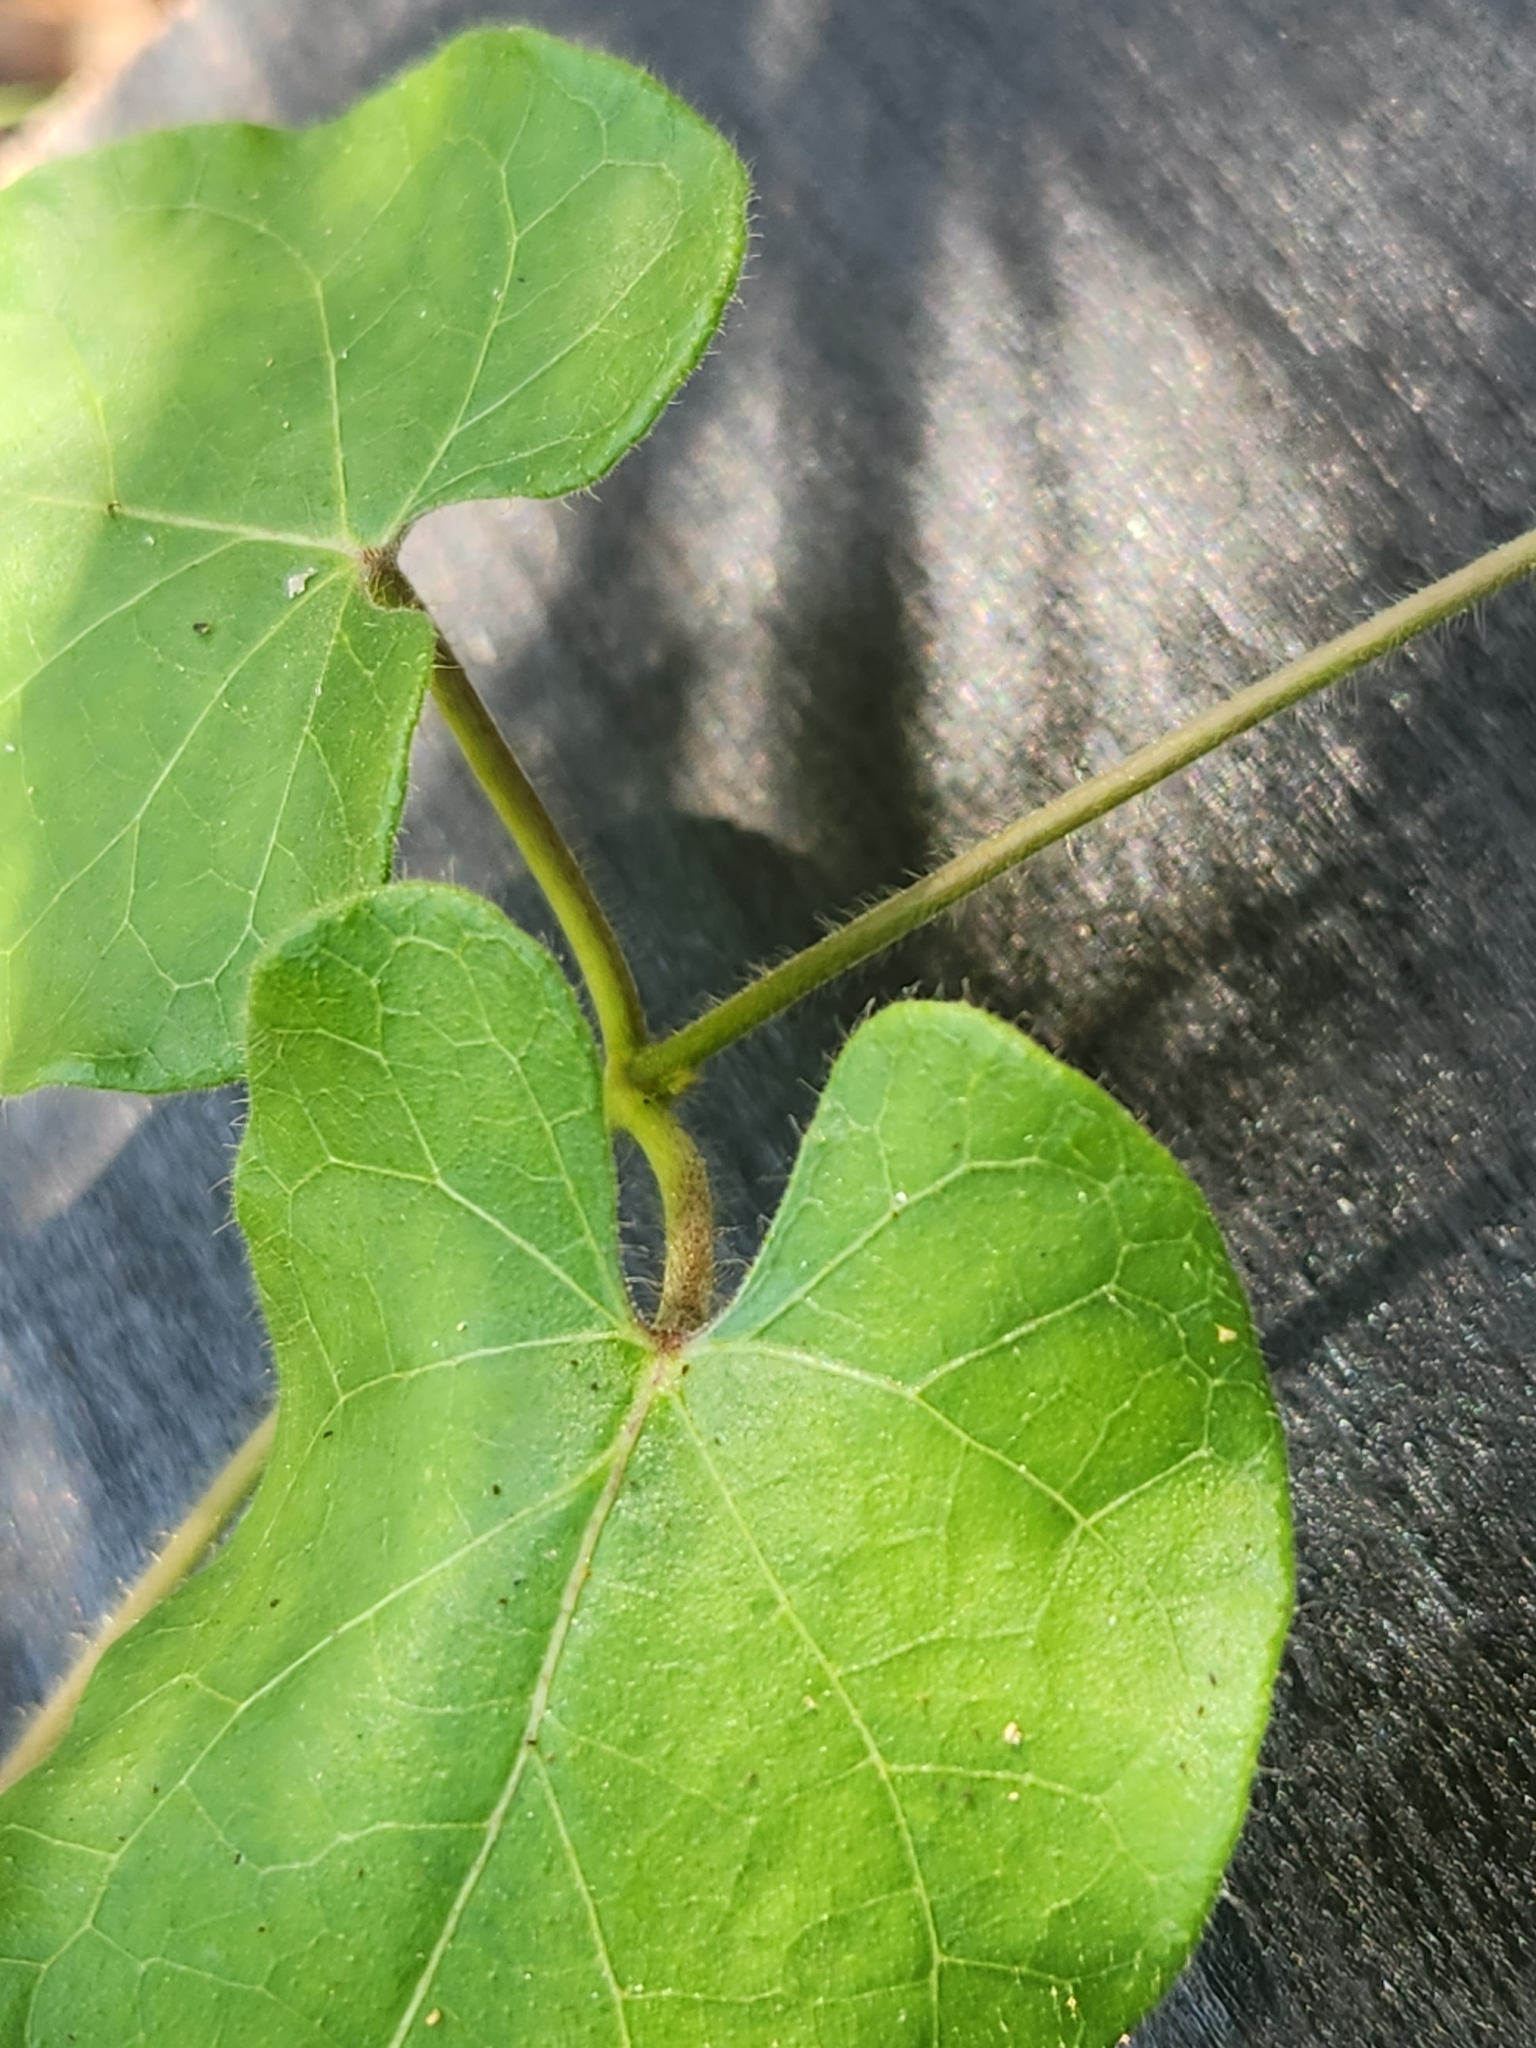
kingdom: Plantae
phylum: Tracheophyta
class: Magnoliopsida
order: Gentianales
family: Apocynaceae
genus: Dictyanthus
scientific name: Dictyanthus reticulatus
